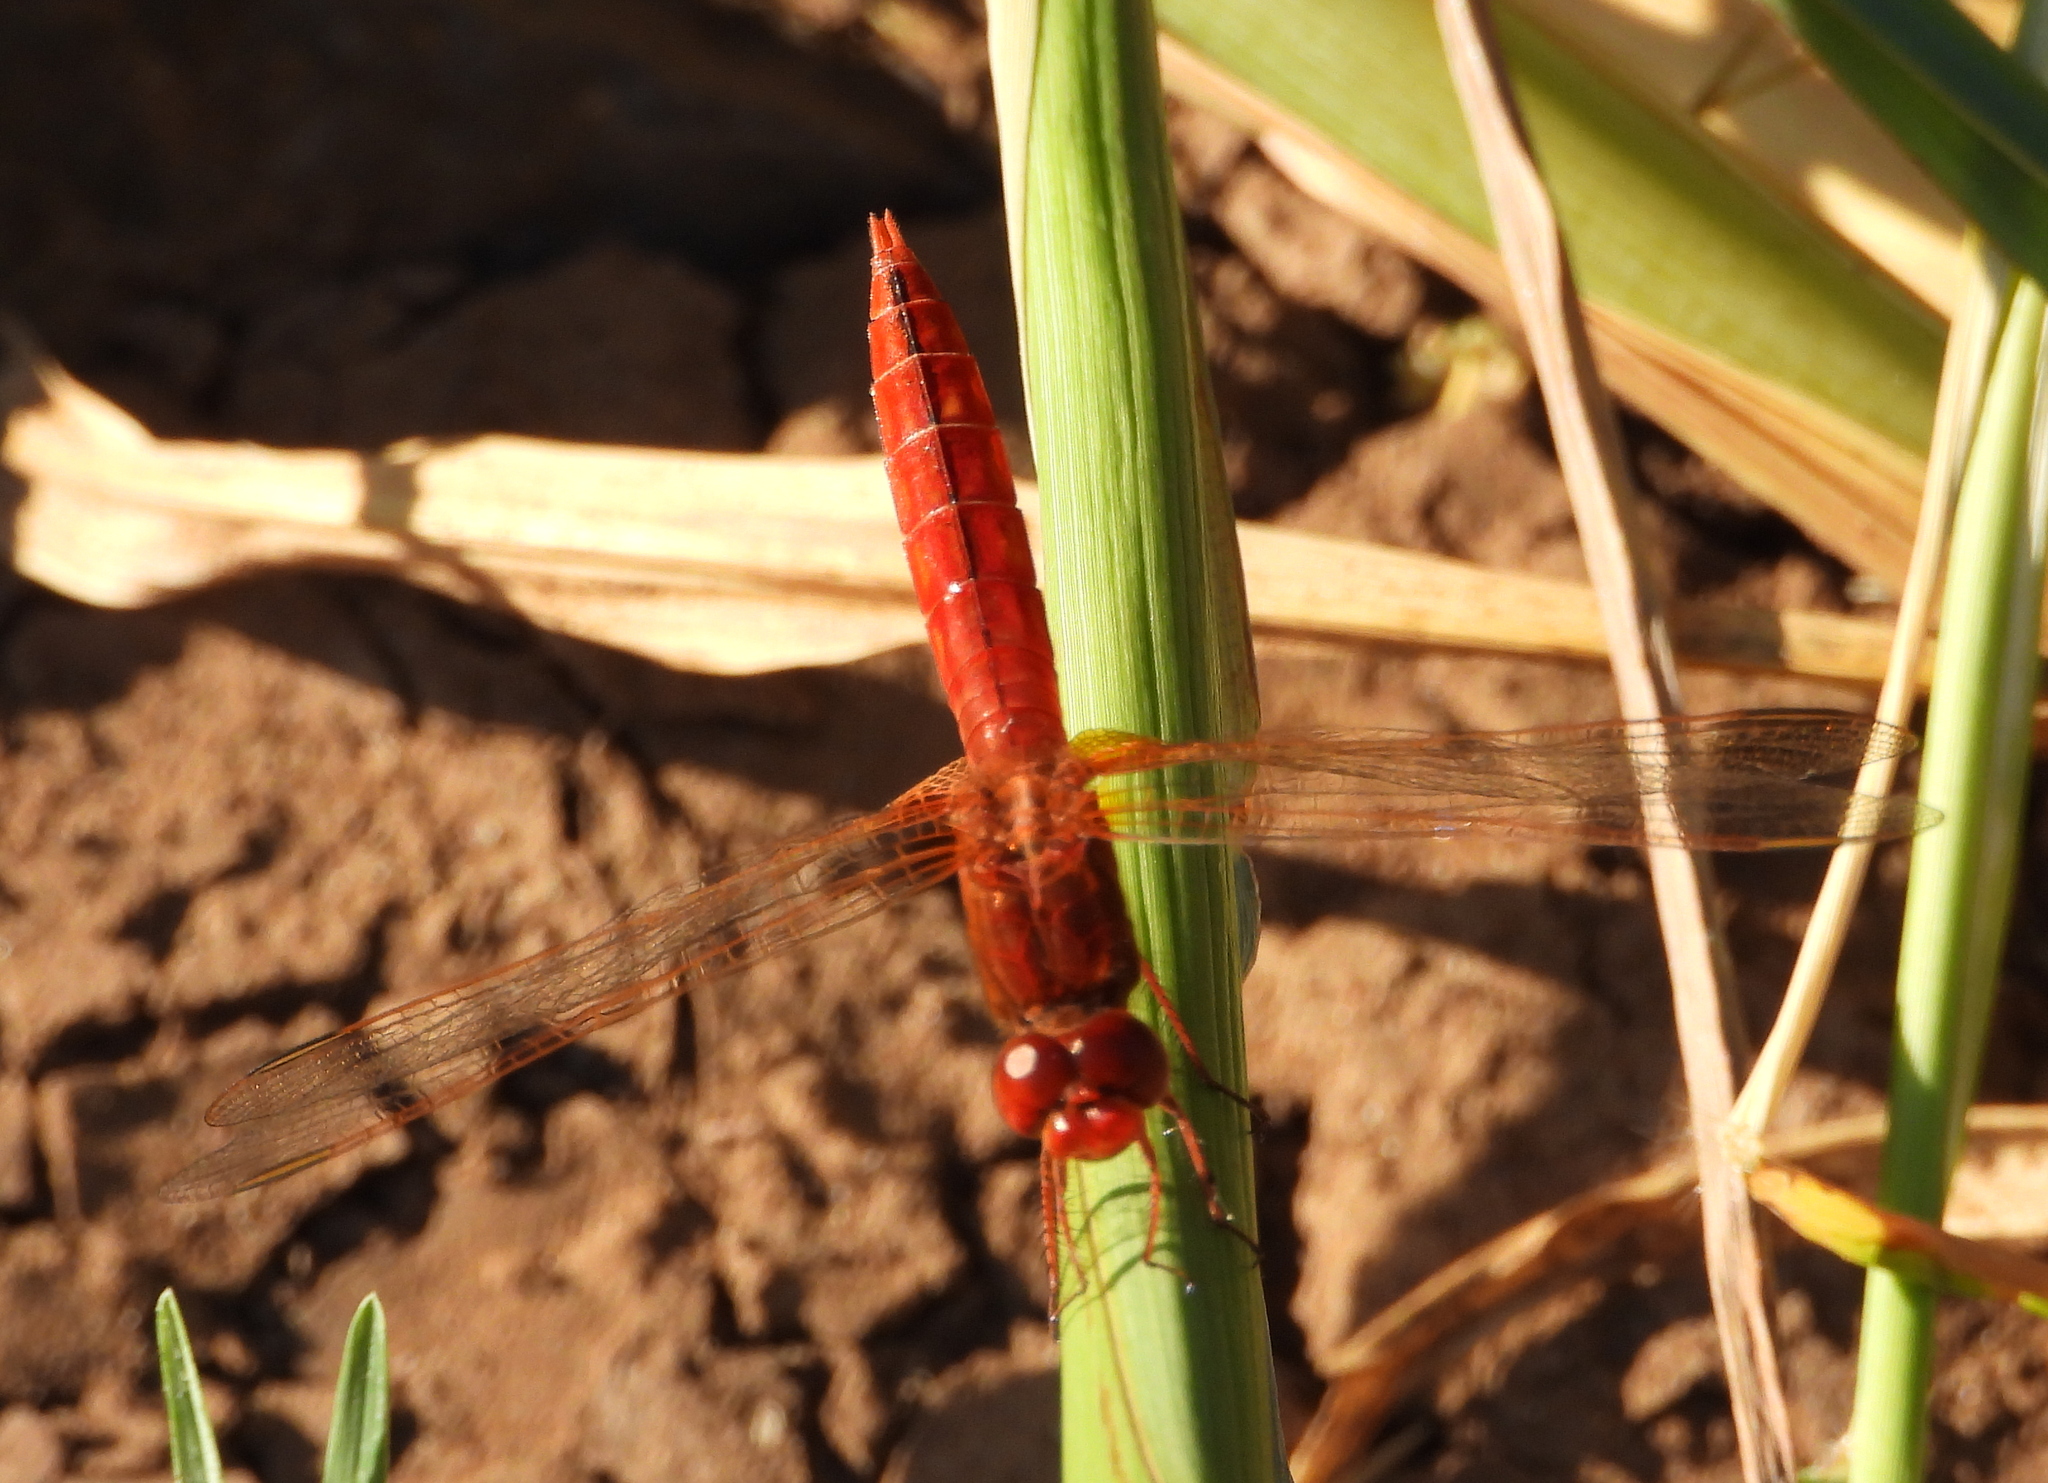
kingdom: Animalia
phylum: Arthropoda
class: Insecta
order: Odonata
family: Libellulidae
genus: Crocothemis
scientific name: Crocothemis erythraea
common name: Scarlet dragonfly
